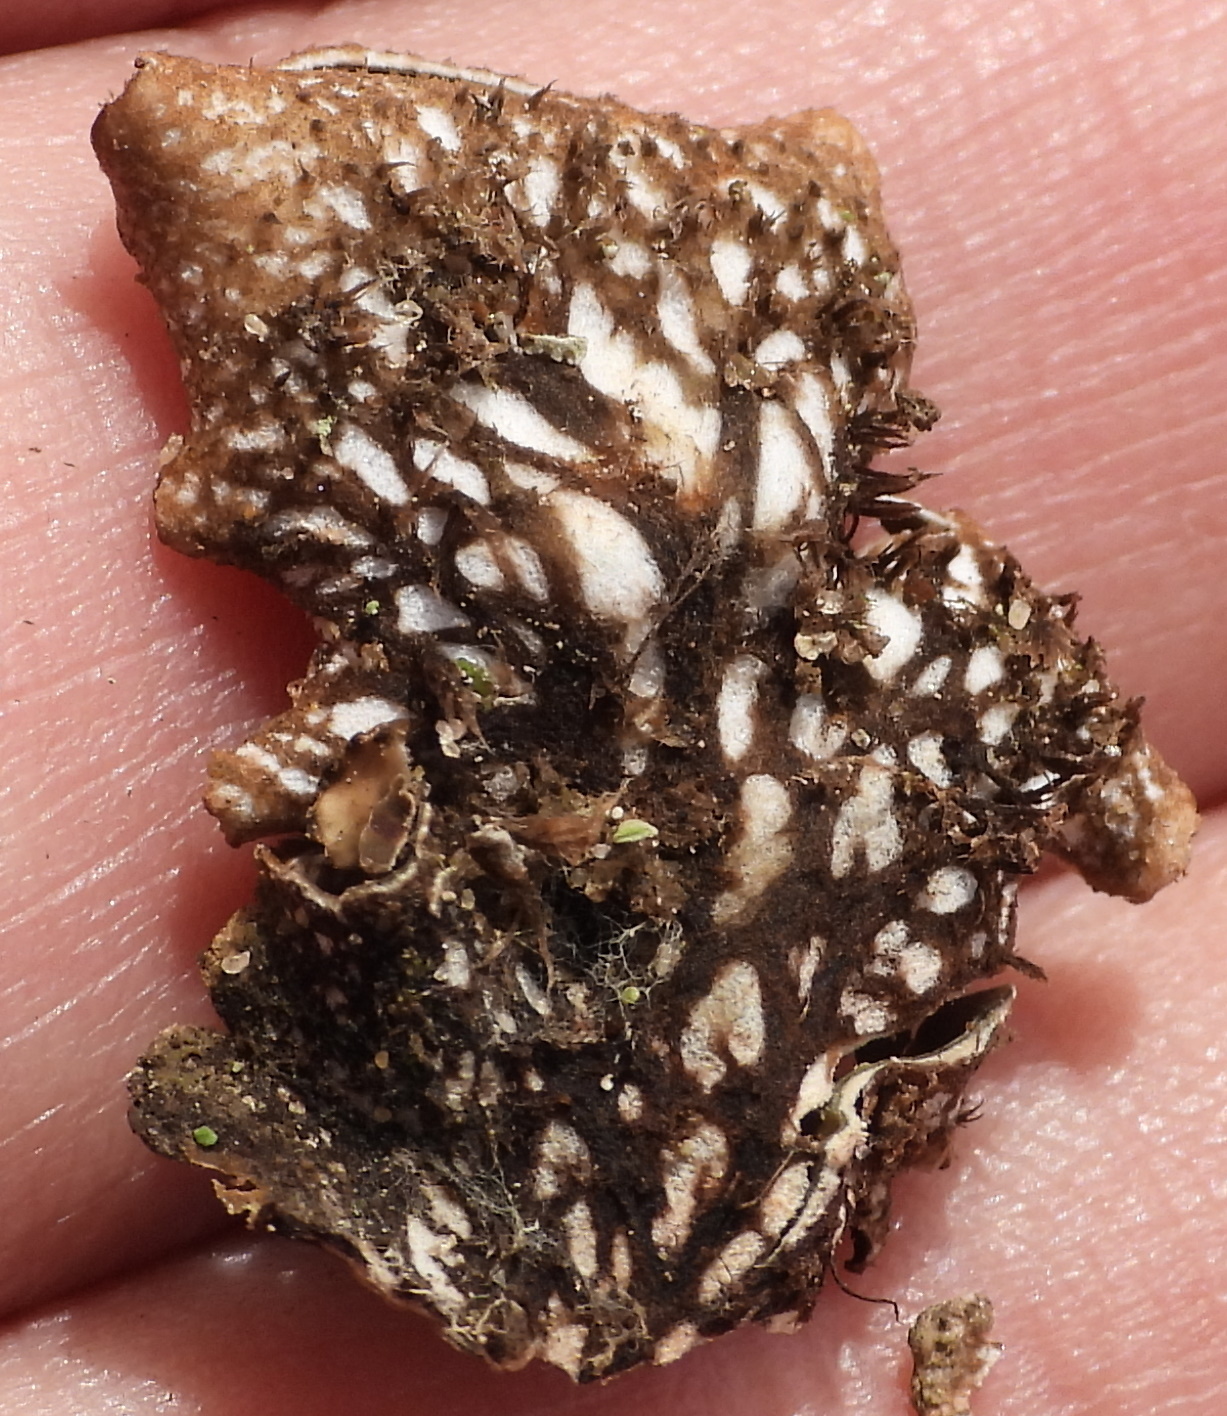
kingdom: Fungi
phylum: Ascomycota
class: Lecanoromycetes
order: Peltigerales
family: Peltigeraceae
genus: Peltigera
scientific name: Peltigera polydactylon
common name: Many-fruited pelt lichen
